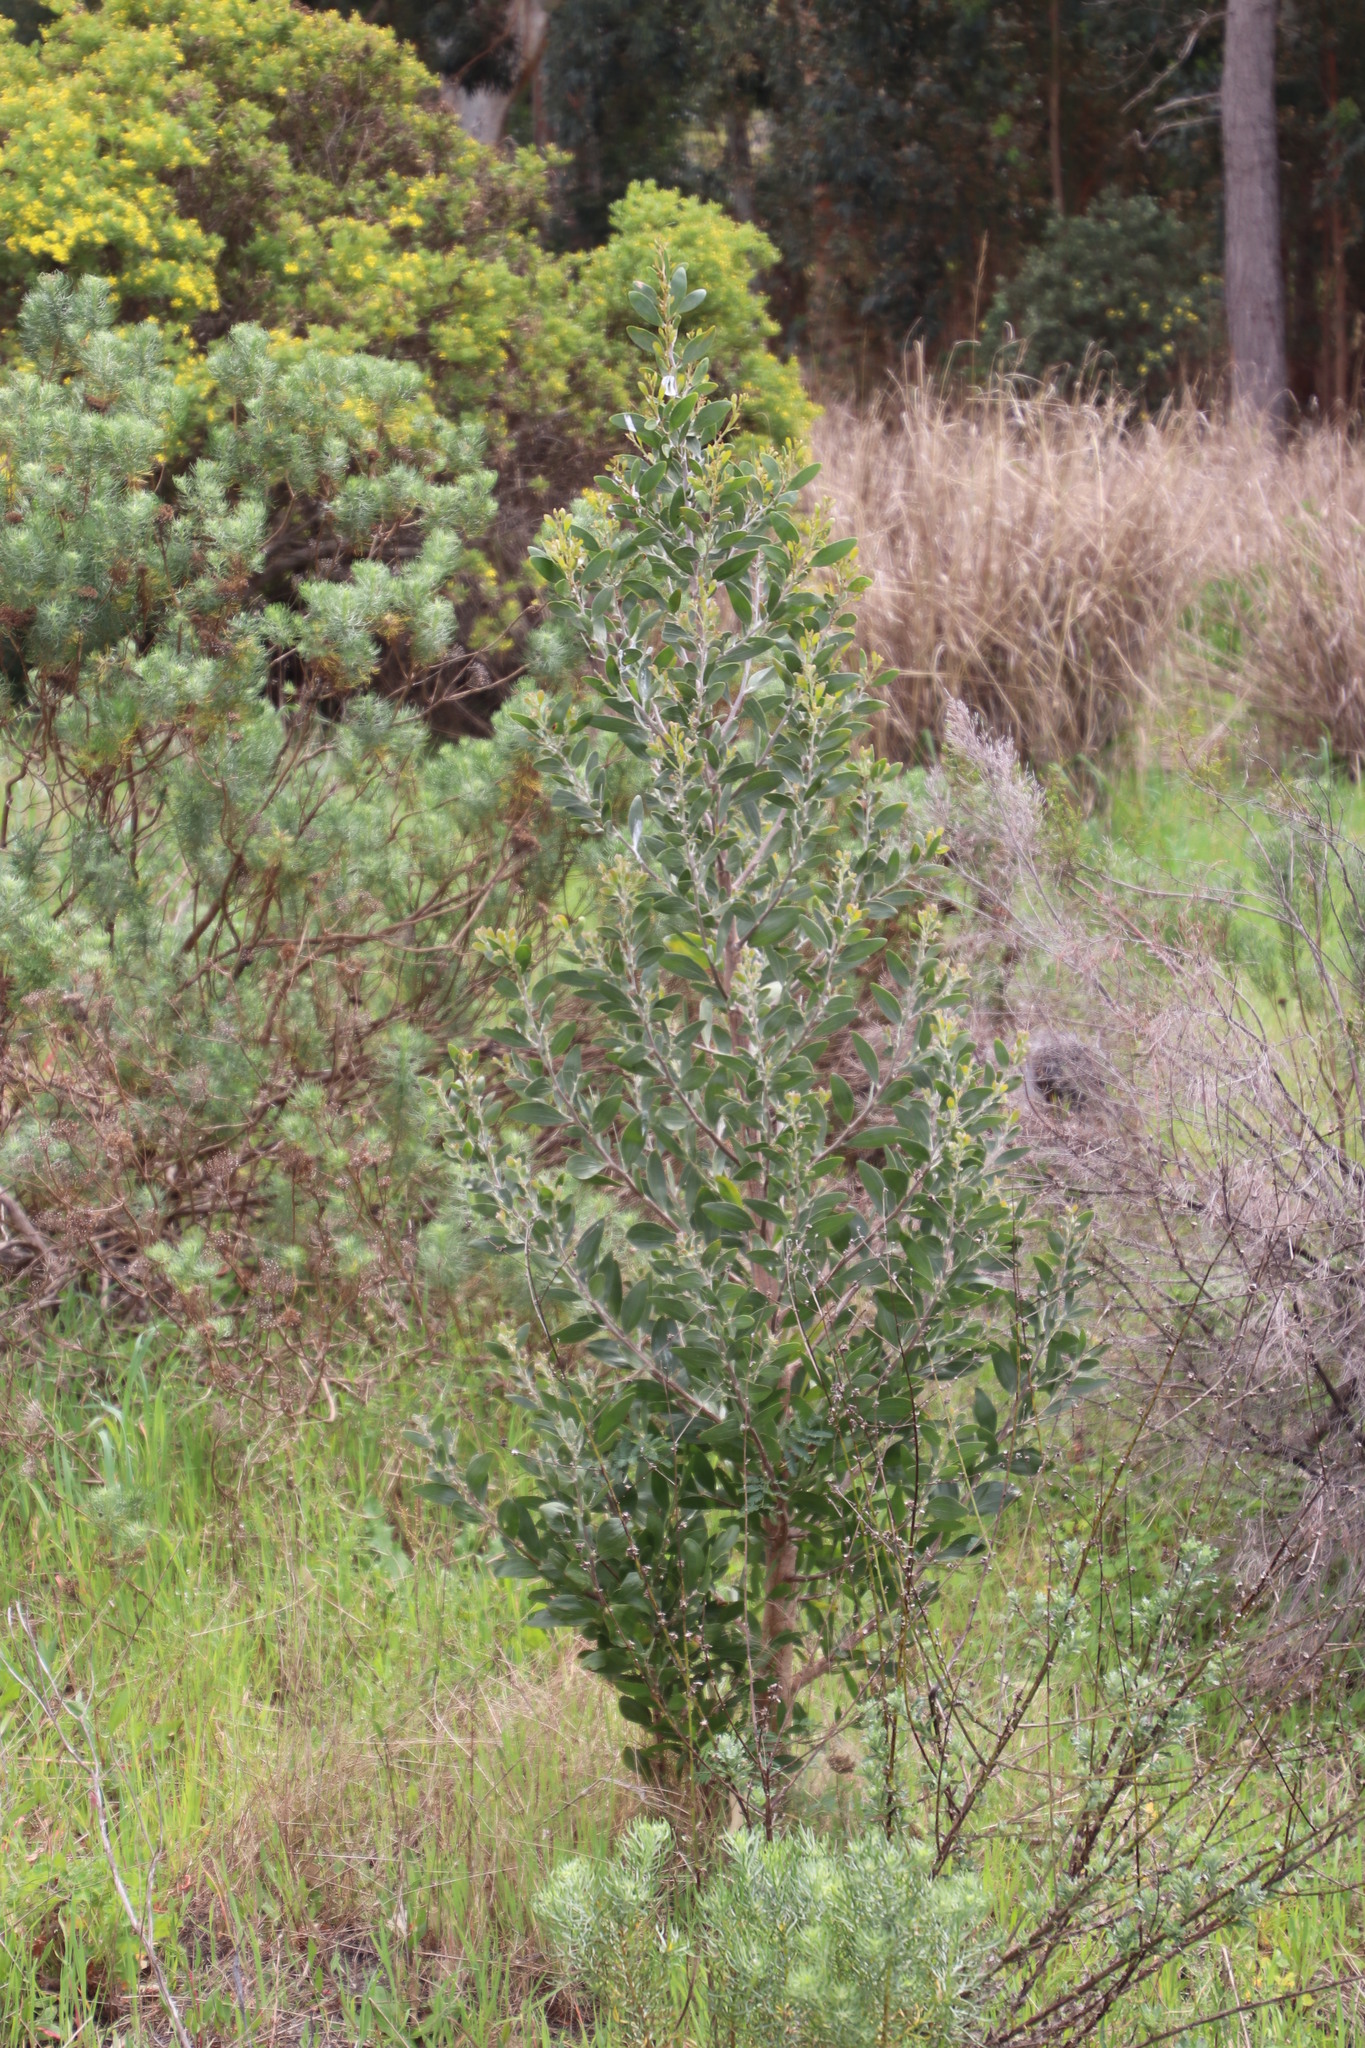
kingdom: Plantae
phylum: Tracheophyta
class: Magnoliopsida
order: Fabales
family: Fabaceae
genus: Acacia
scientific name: Acacia melanoxylon
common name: Blackwood
